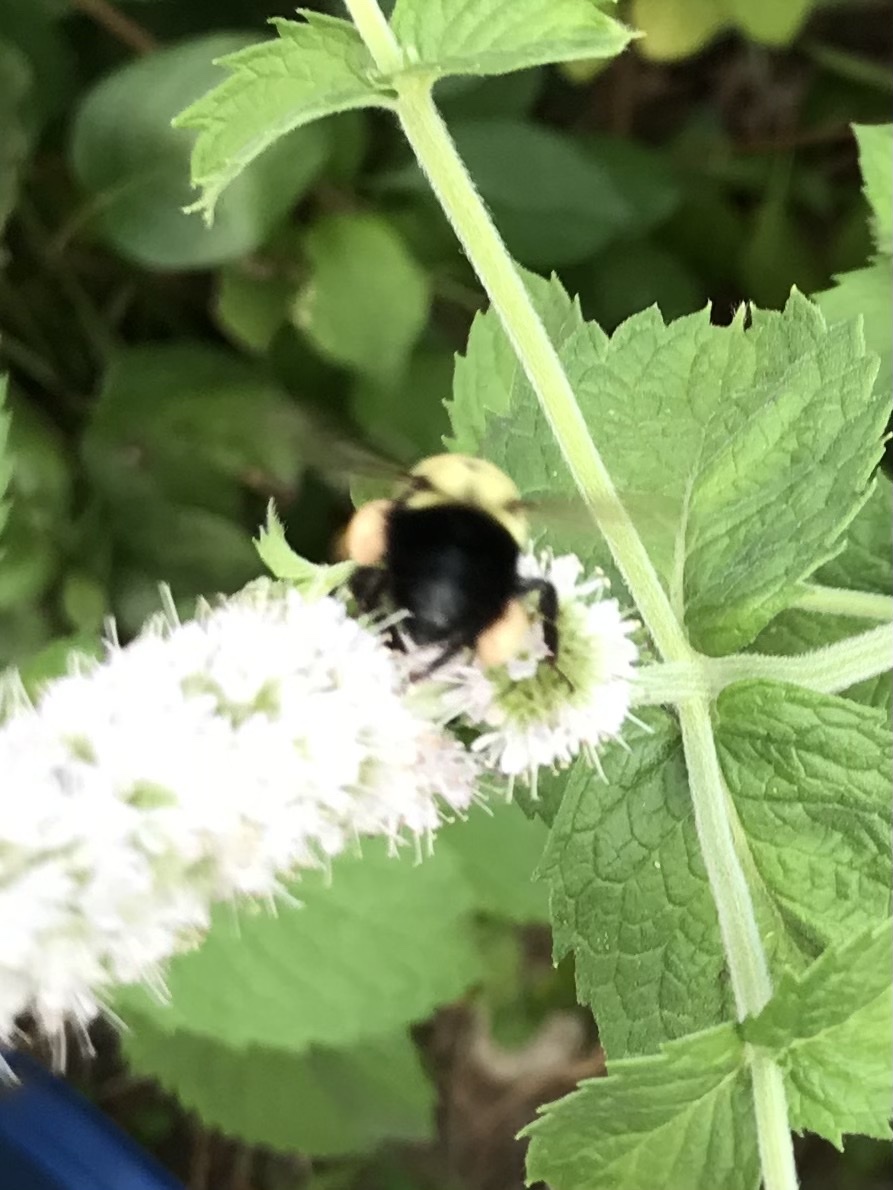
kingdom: Animalia
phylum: Arthropoda
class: Insecta
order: Hymenoptera
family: Apidae
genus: Bombus
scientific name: Bombus impatiens
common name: Common eastern bumble bee
